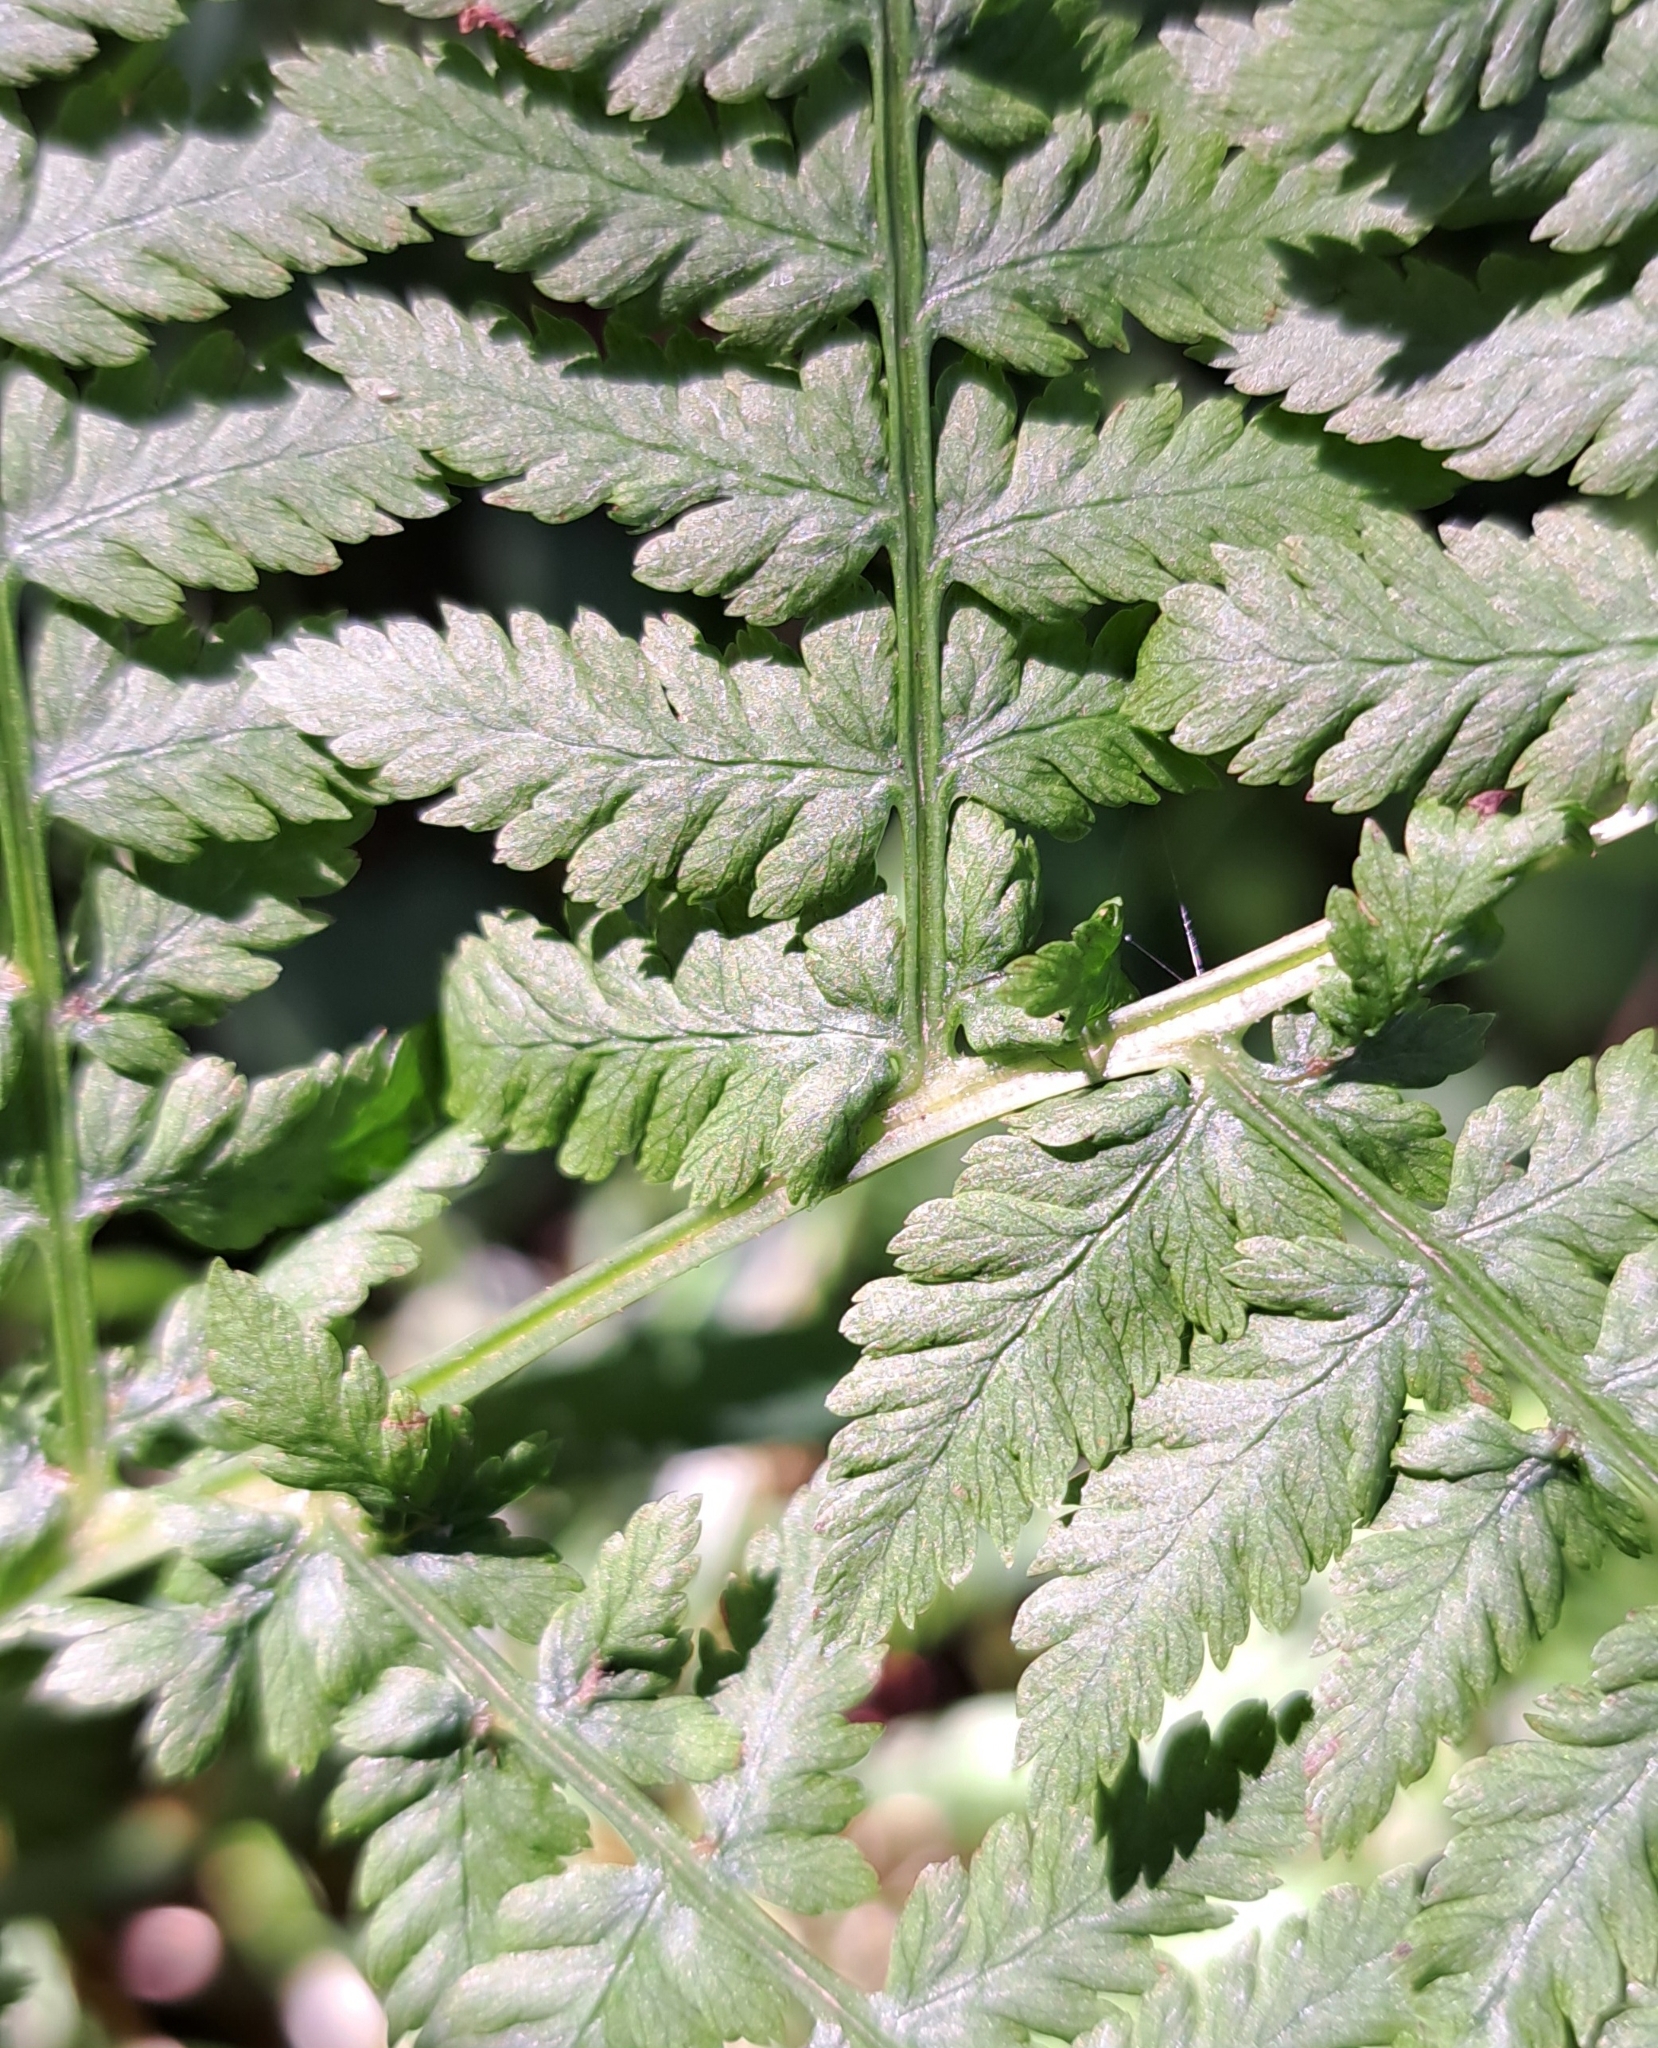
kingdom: Plantae
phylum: Tracheophyta
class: Polypodiopsida
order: Polypodiales
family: Athyriaceae
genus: Athyrium
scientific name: Athyrium filix-femina
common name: Lady fern
